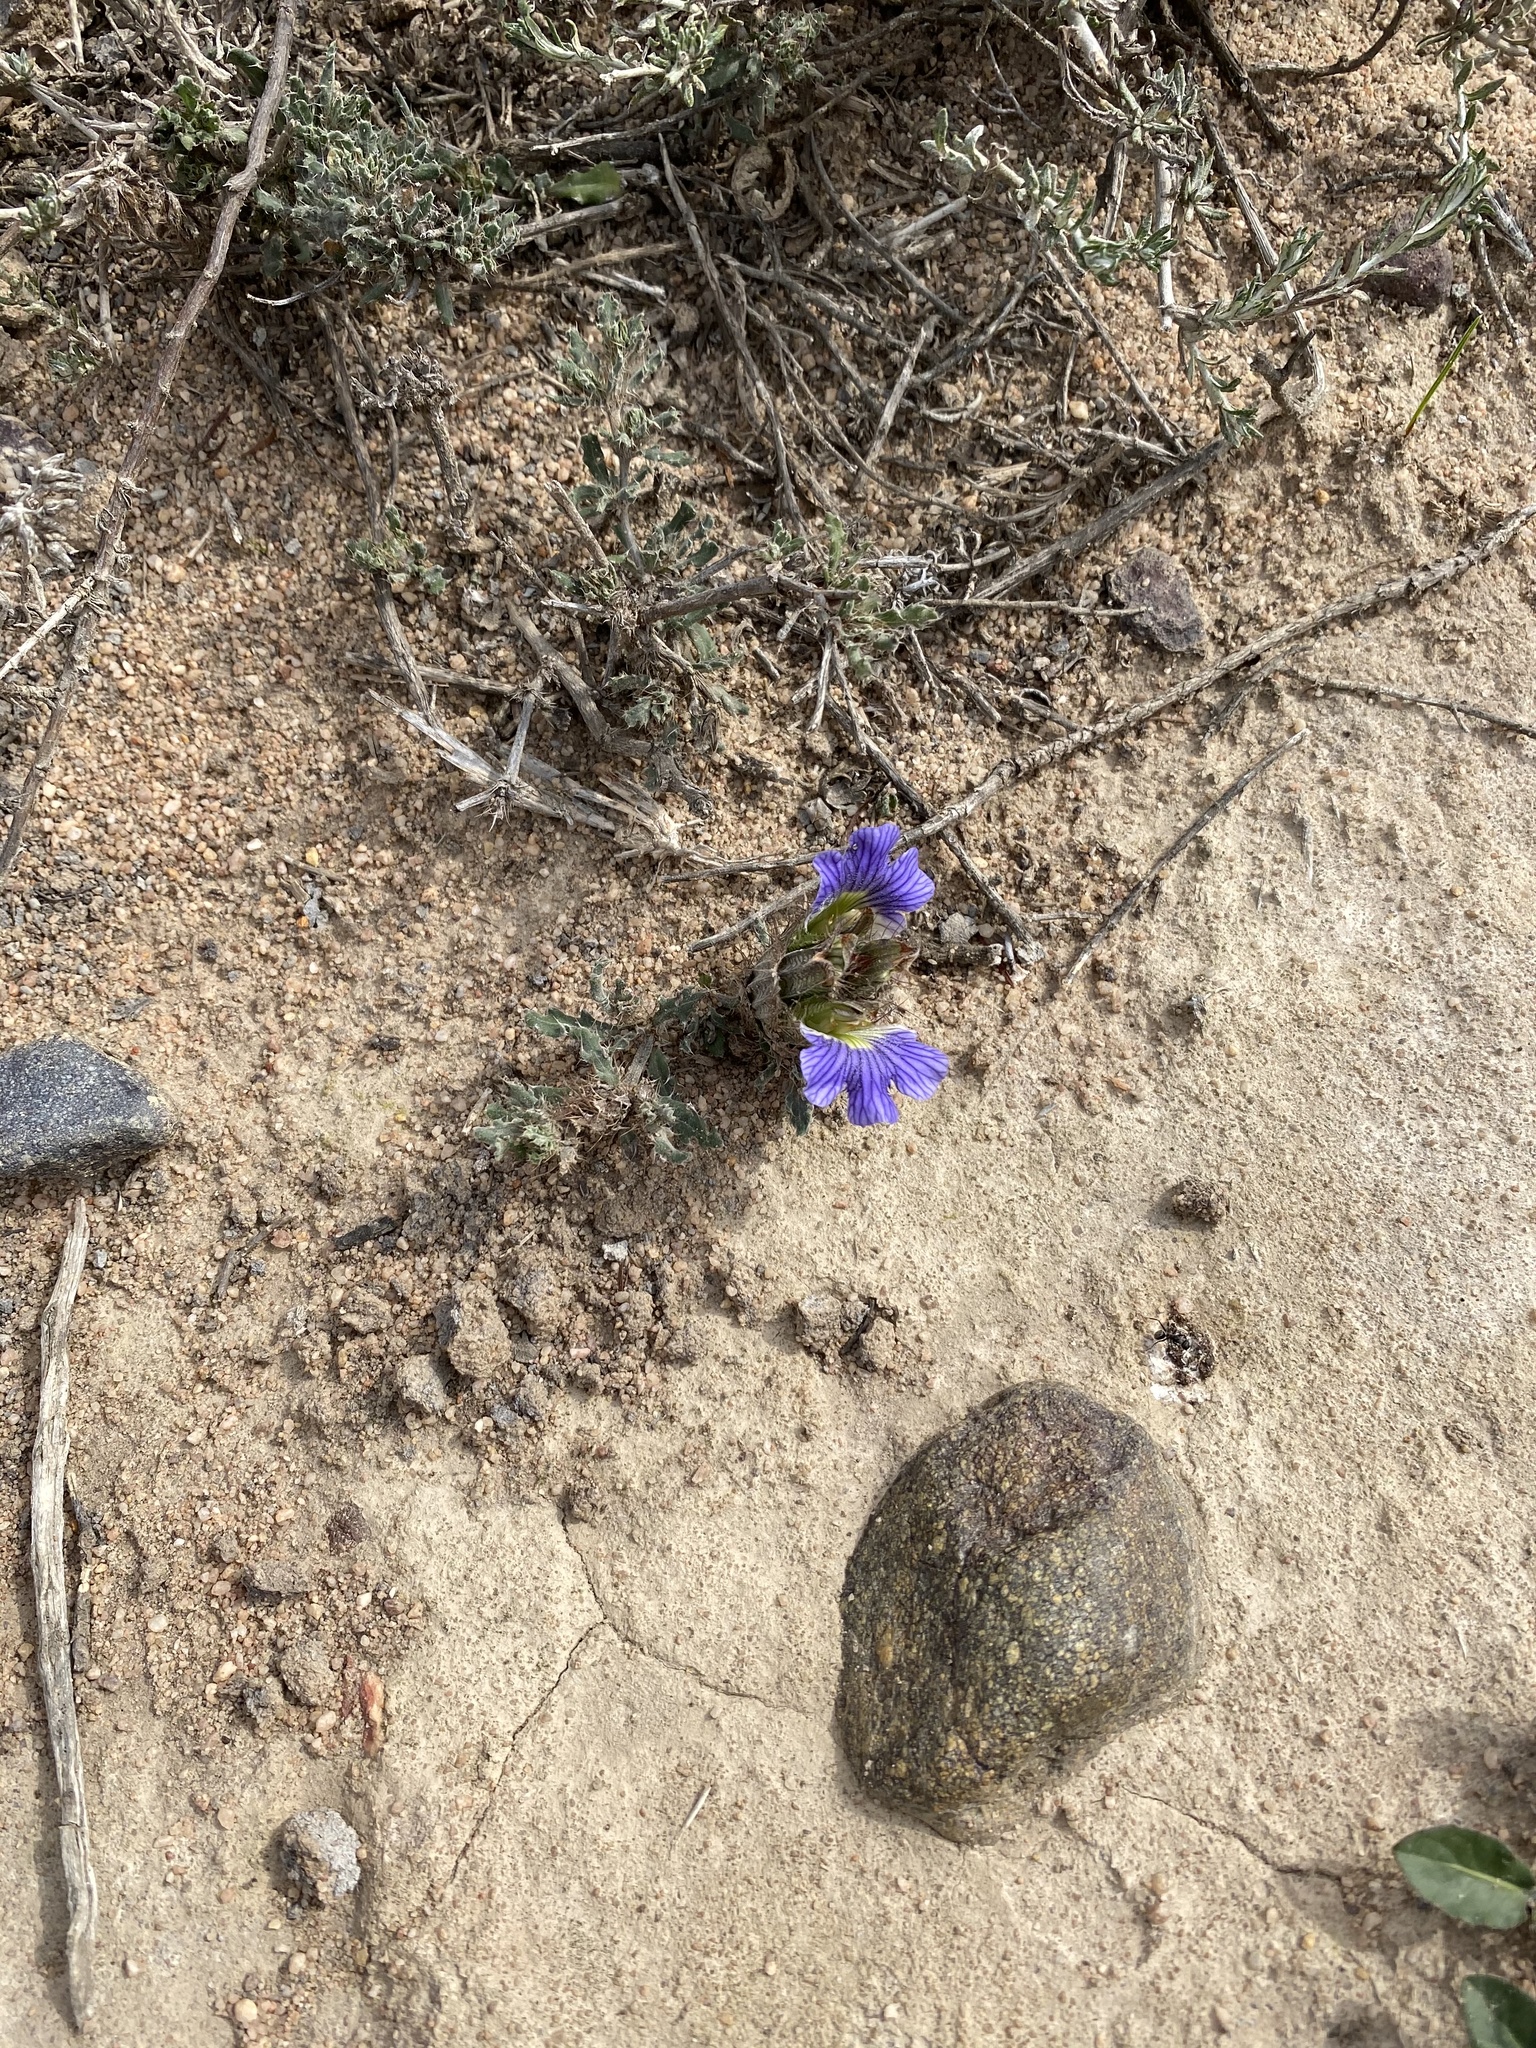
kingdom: Plantae
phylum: Tracheophyta
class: Magnoliopsida
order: Lamiales
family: Acanthaceae
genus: Blepharis
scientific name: Blepharis procumbens
